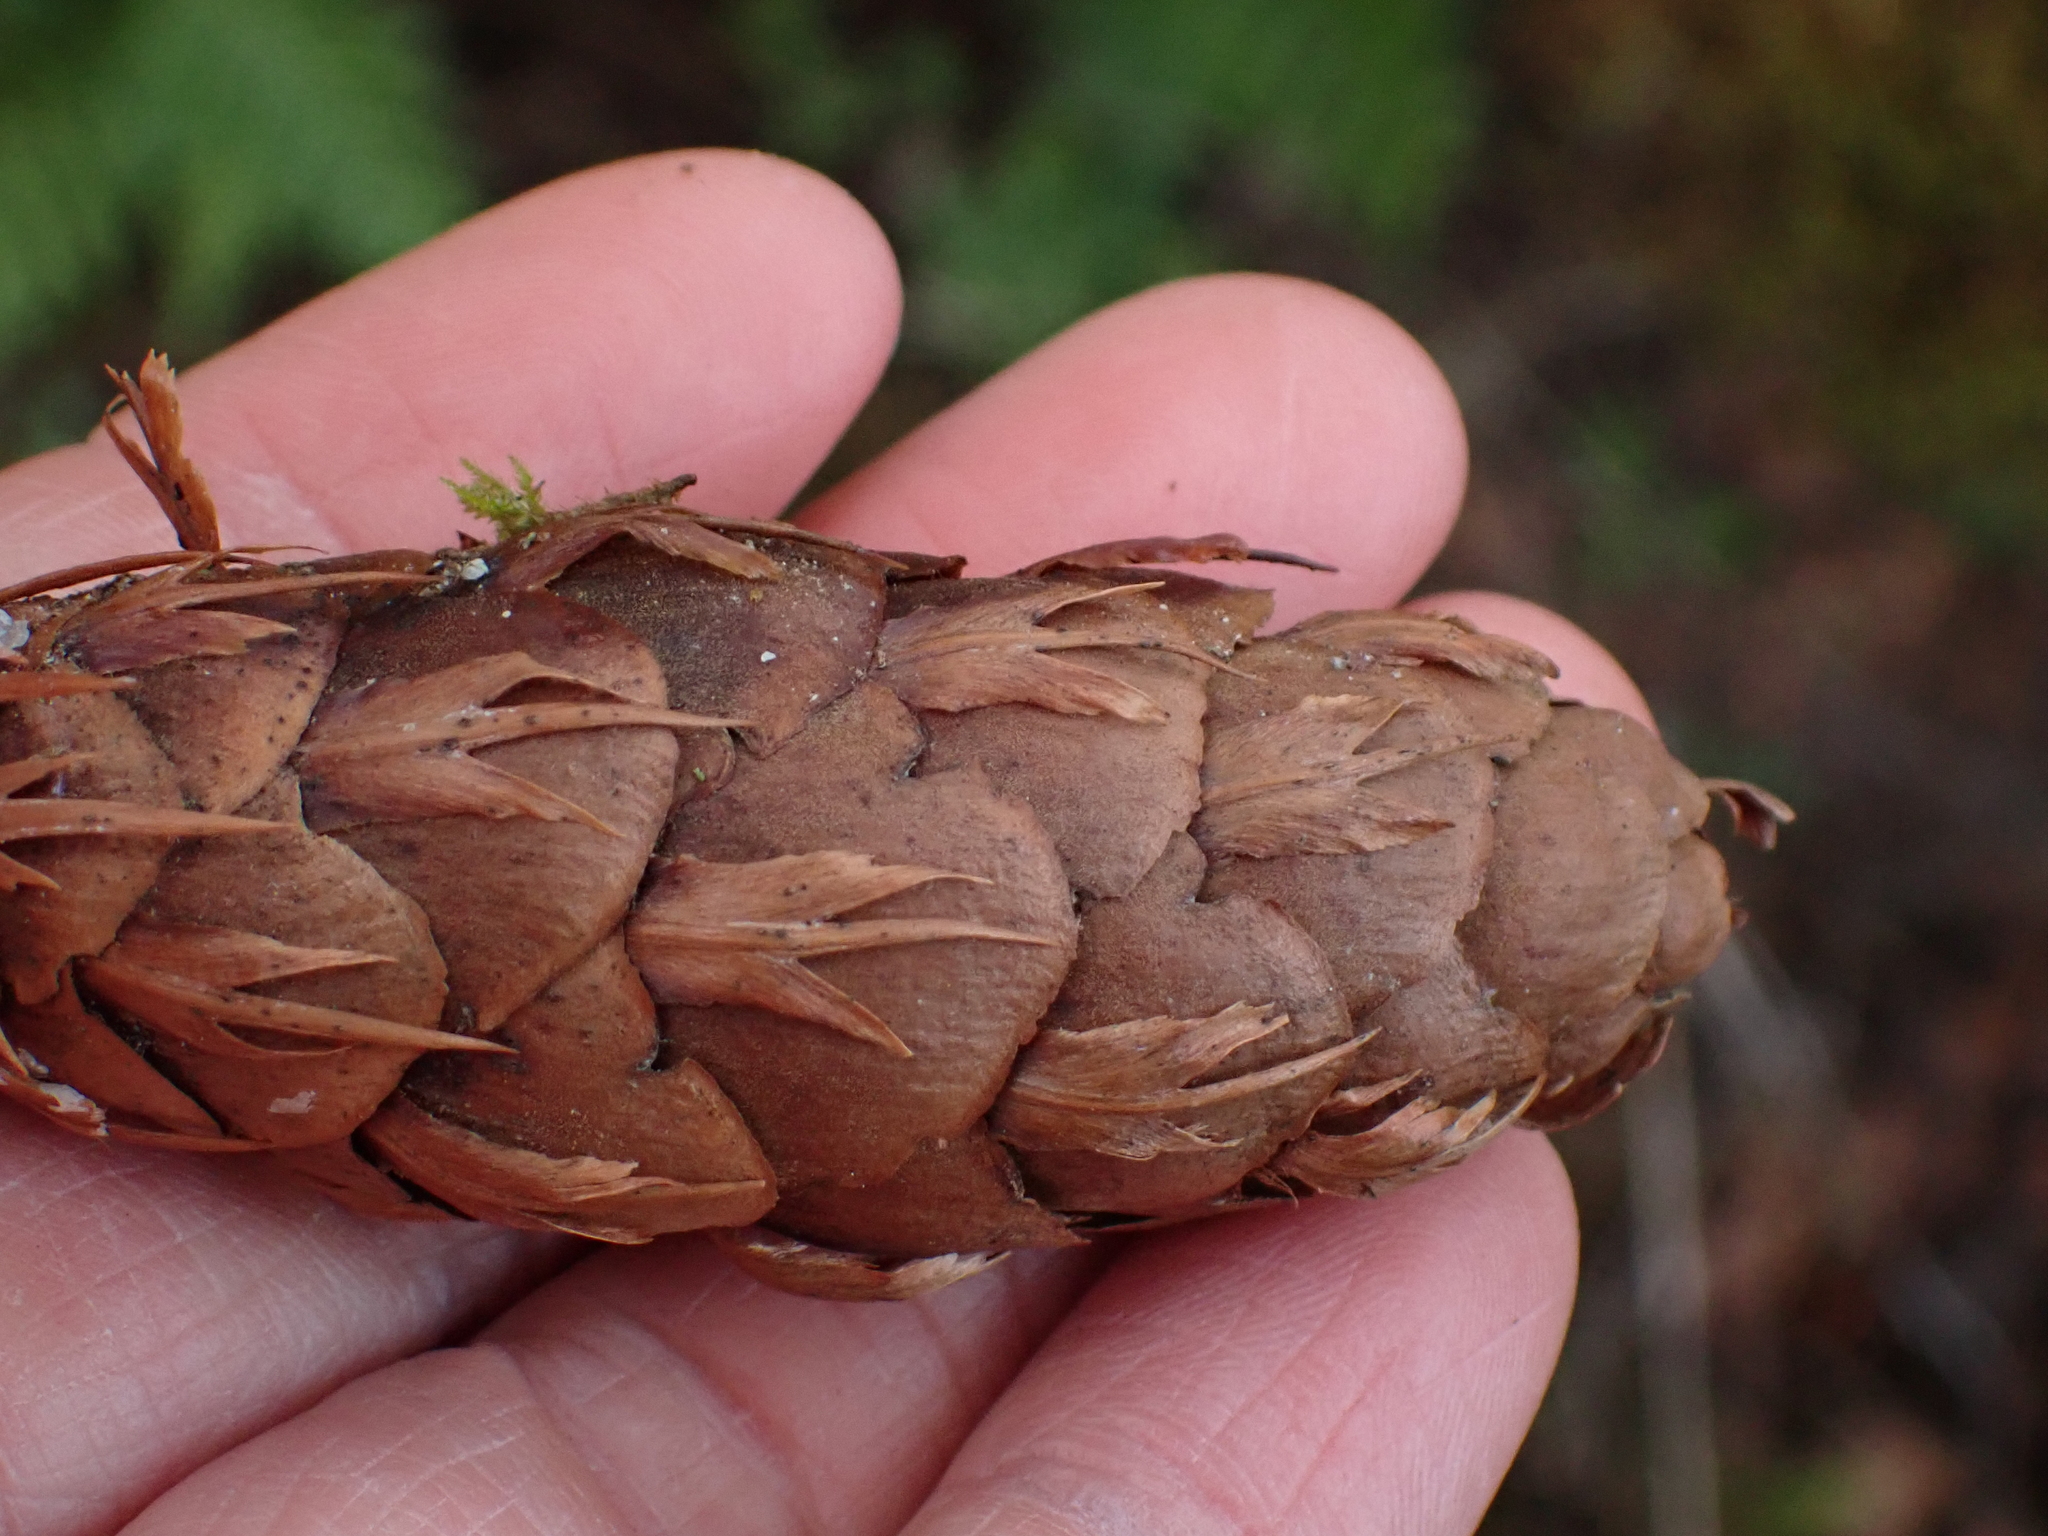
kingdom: Plantae
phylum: Tracheophyta
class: Pinopsida
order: Pinales
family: Pinaceae
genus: Pseudotsuga
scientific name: Pseudotsuga menziesii
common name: Douglas fir
